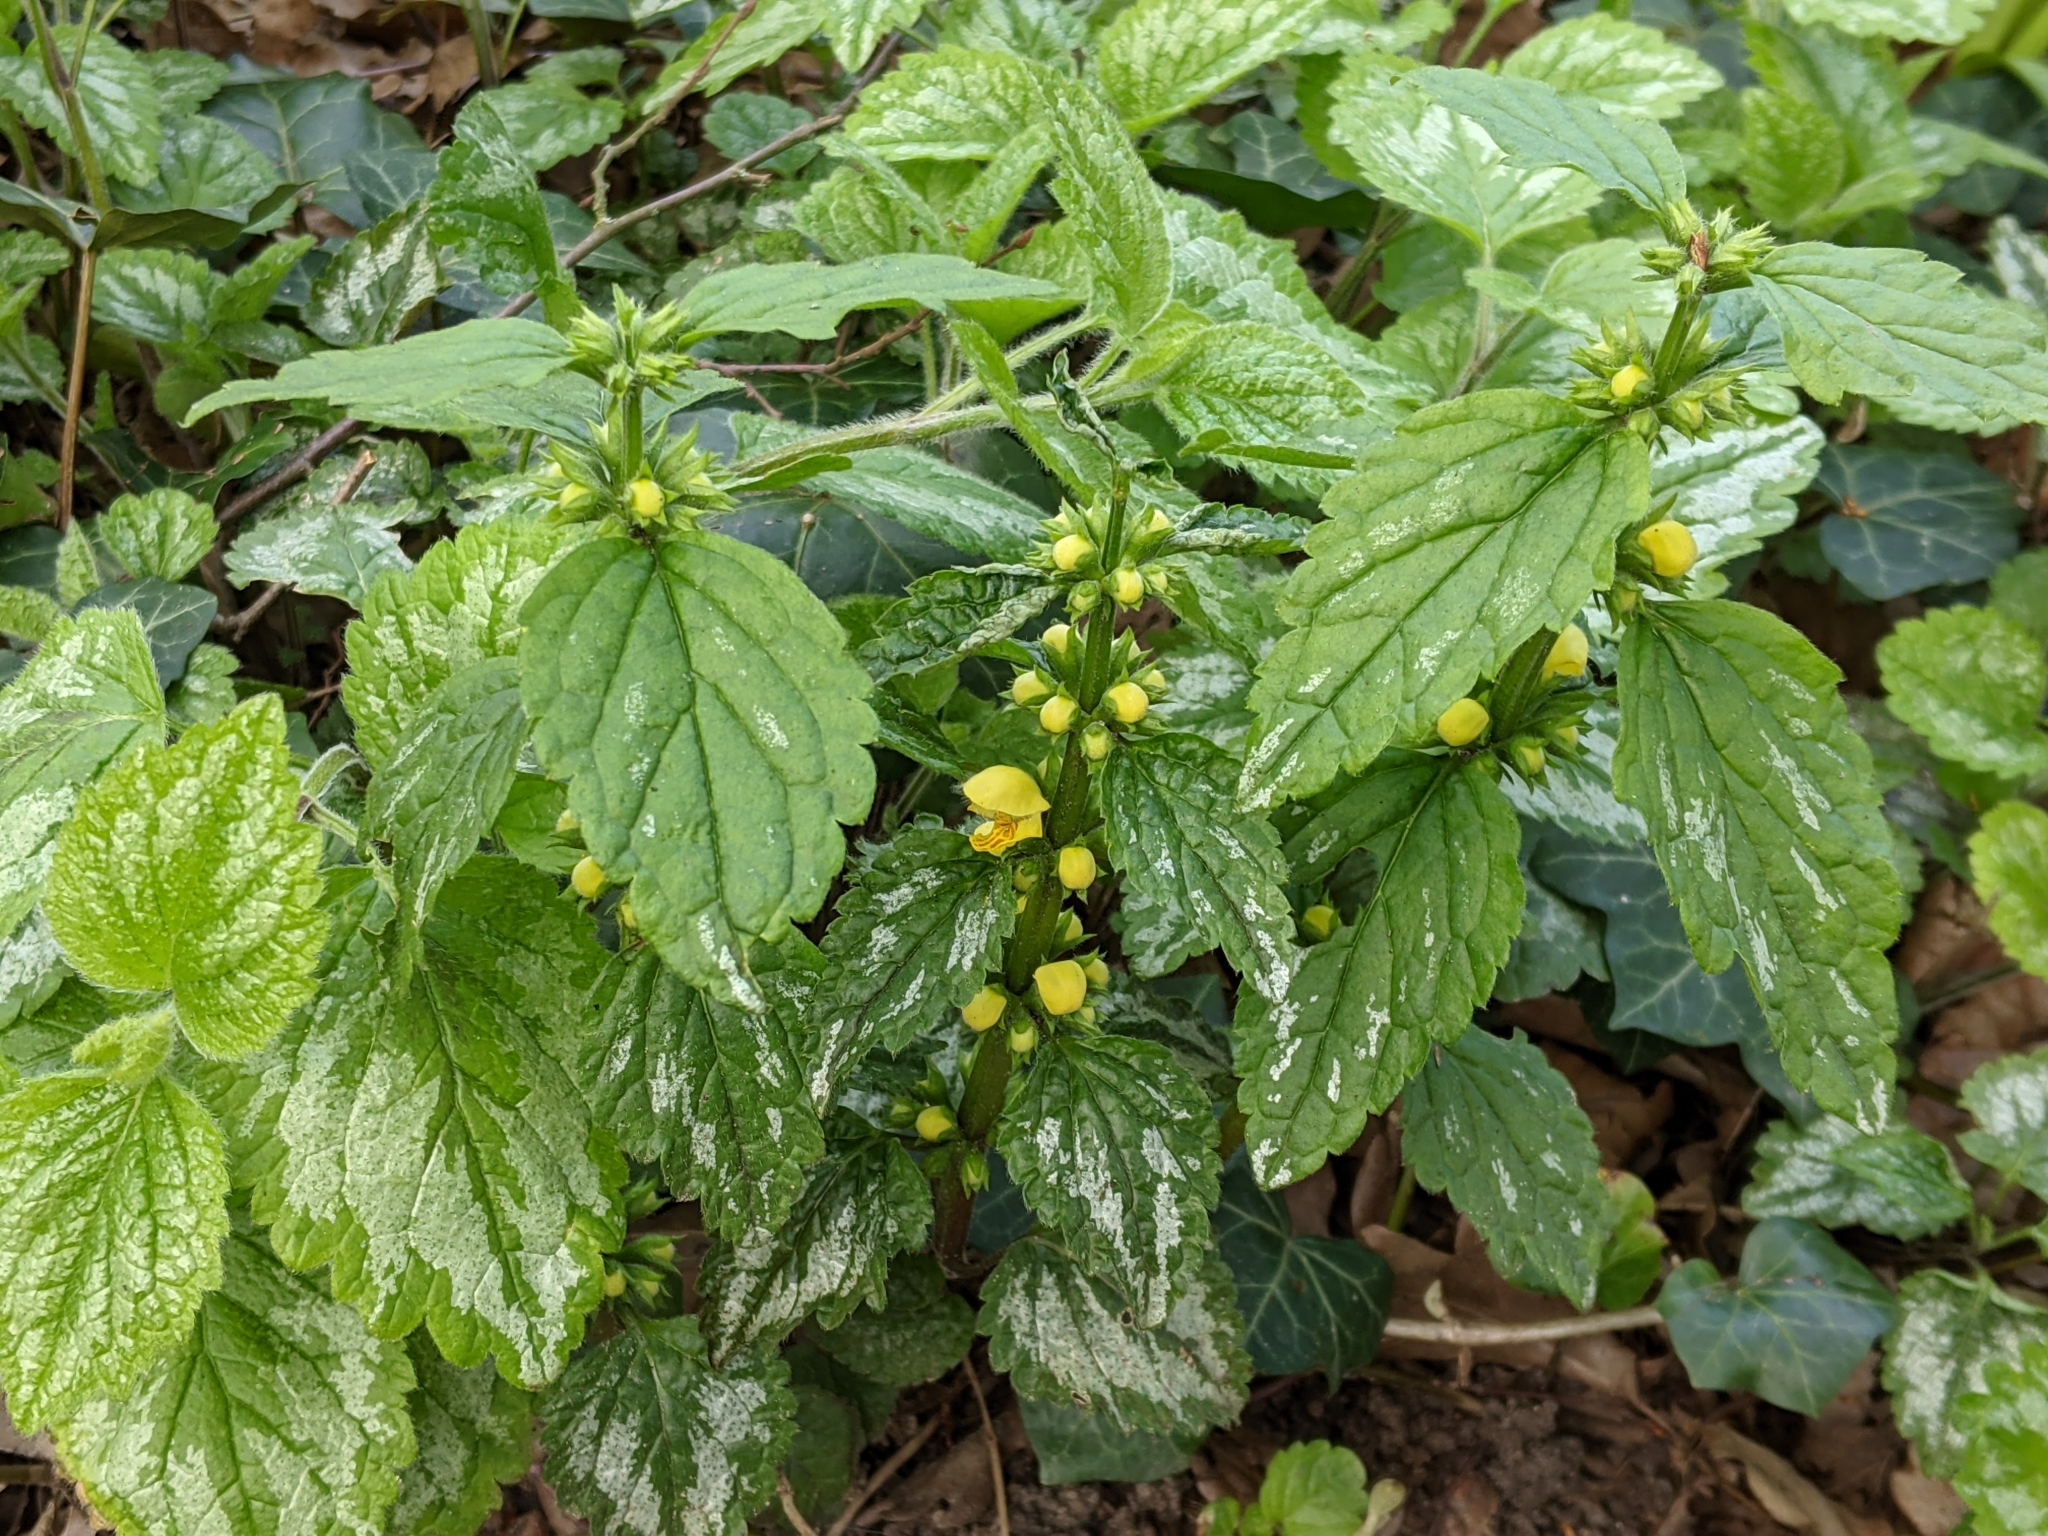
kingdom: Plantae
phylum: Tracheophyta
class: Magnoliopsida
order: Lamiales
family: Lamiaceae
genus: Lamium
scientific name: Lamium galeobdolon
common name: Yellow archangel
